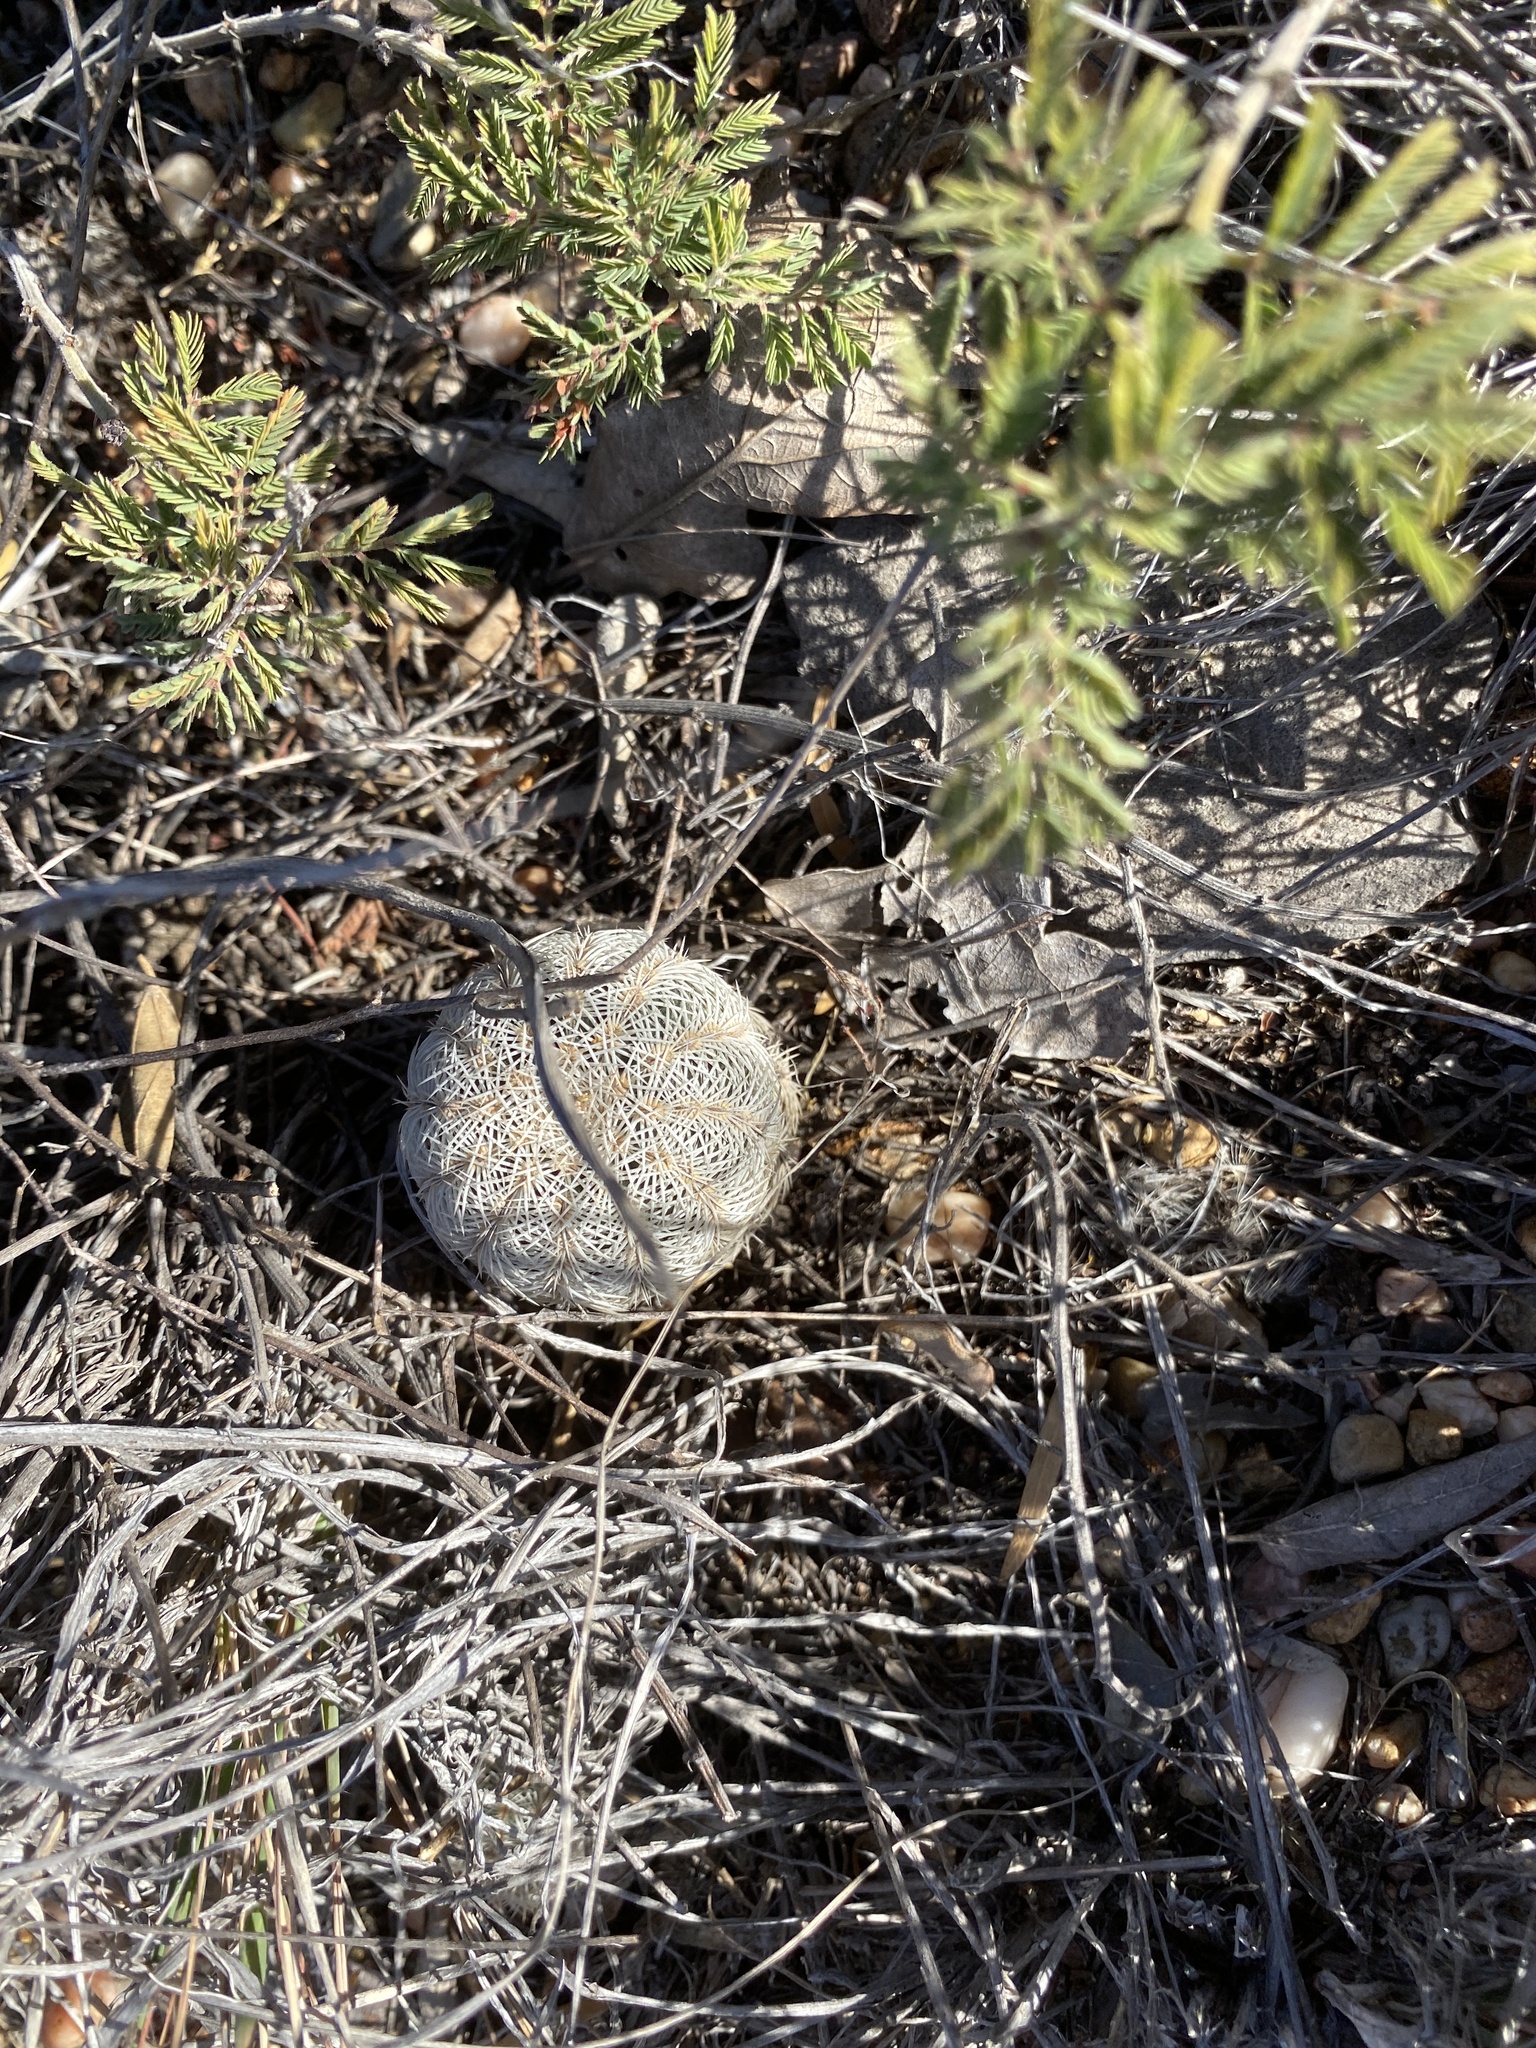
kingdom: Plantae
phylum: Tracheophyta
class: Magnoliopsida
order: Caryophyllales
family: Cactaceae
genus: Echinocereus
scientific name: Echinocereus reichenbachii
